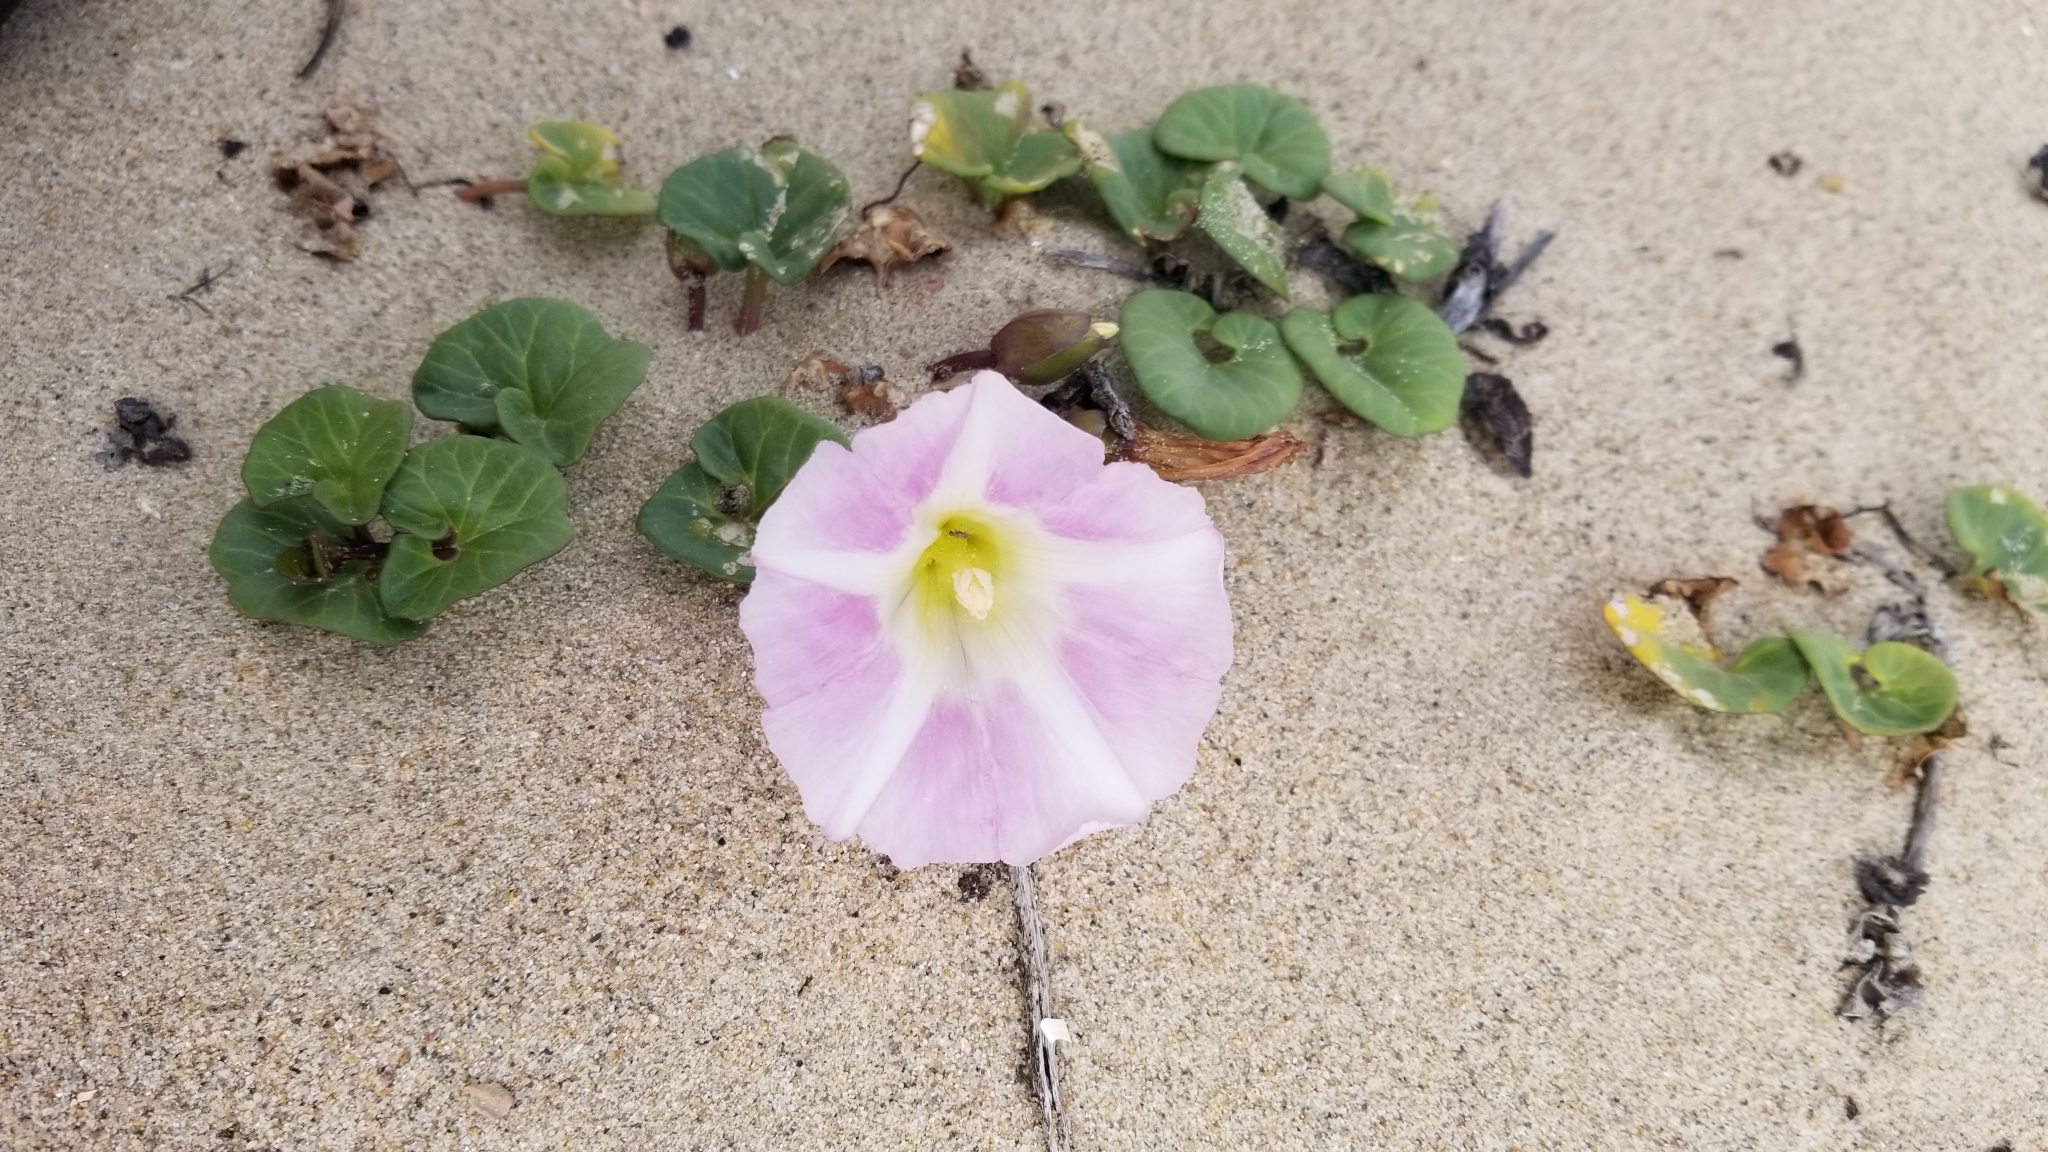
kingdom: Plantae
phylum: Tracheophyta
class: Magnoliopsida
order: Solanales
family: Convolvulaceae
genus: Calystegia
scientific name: Calystegia soldanella
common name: Sea bindweed
